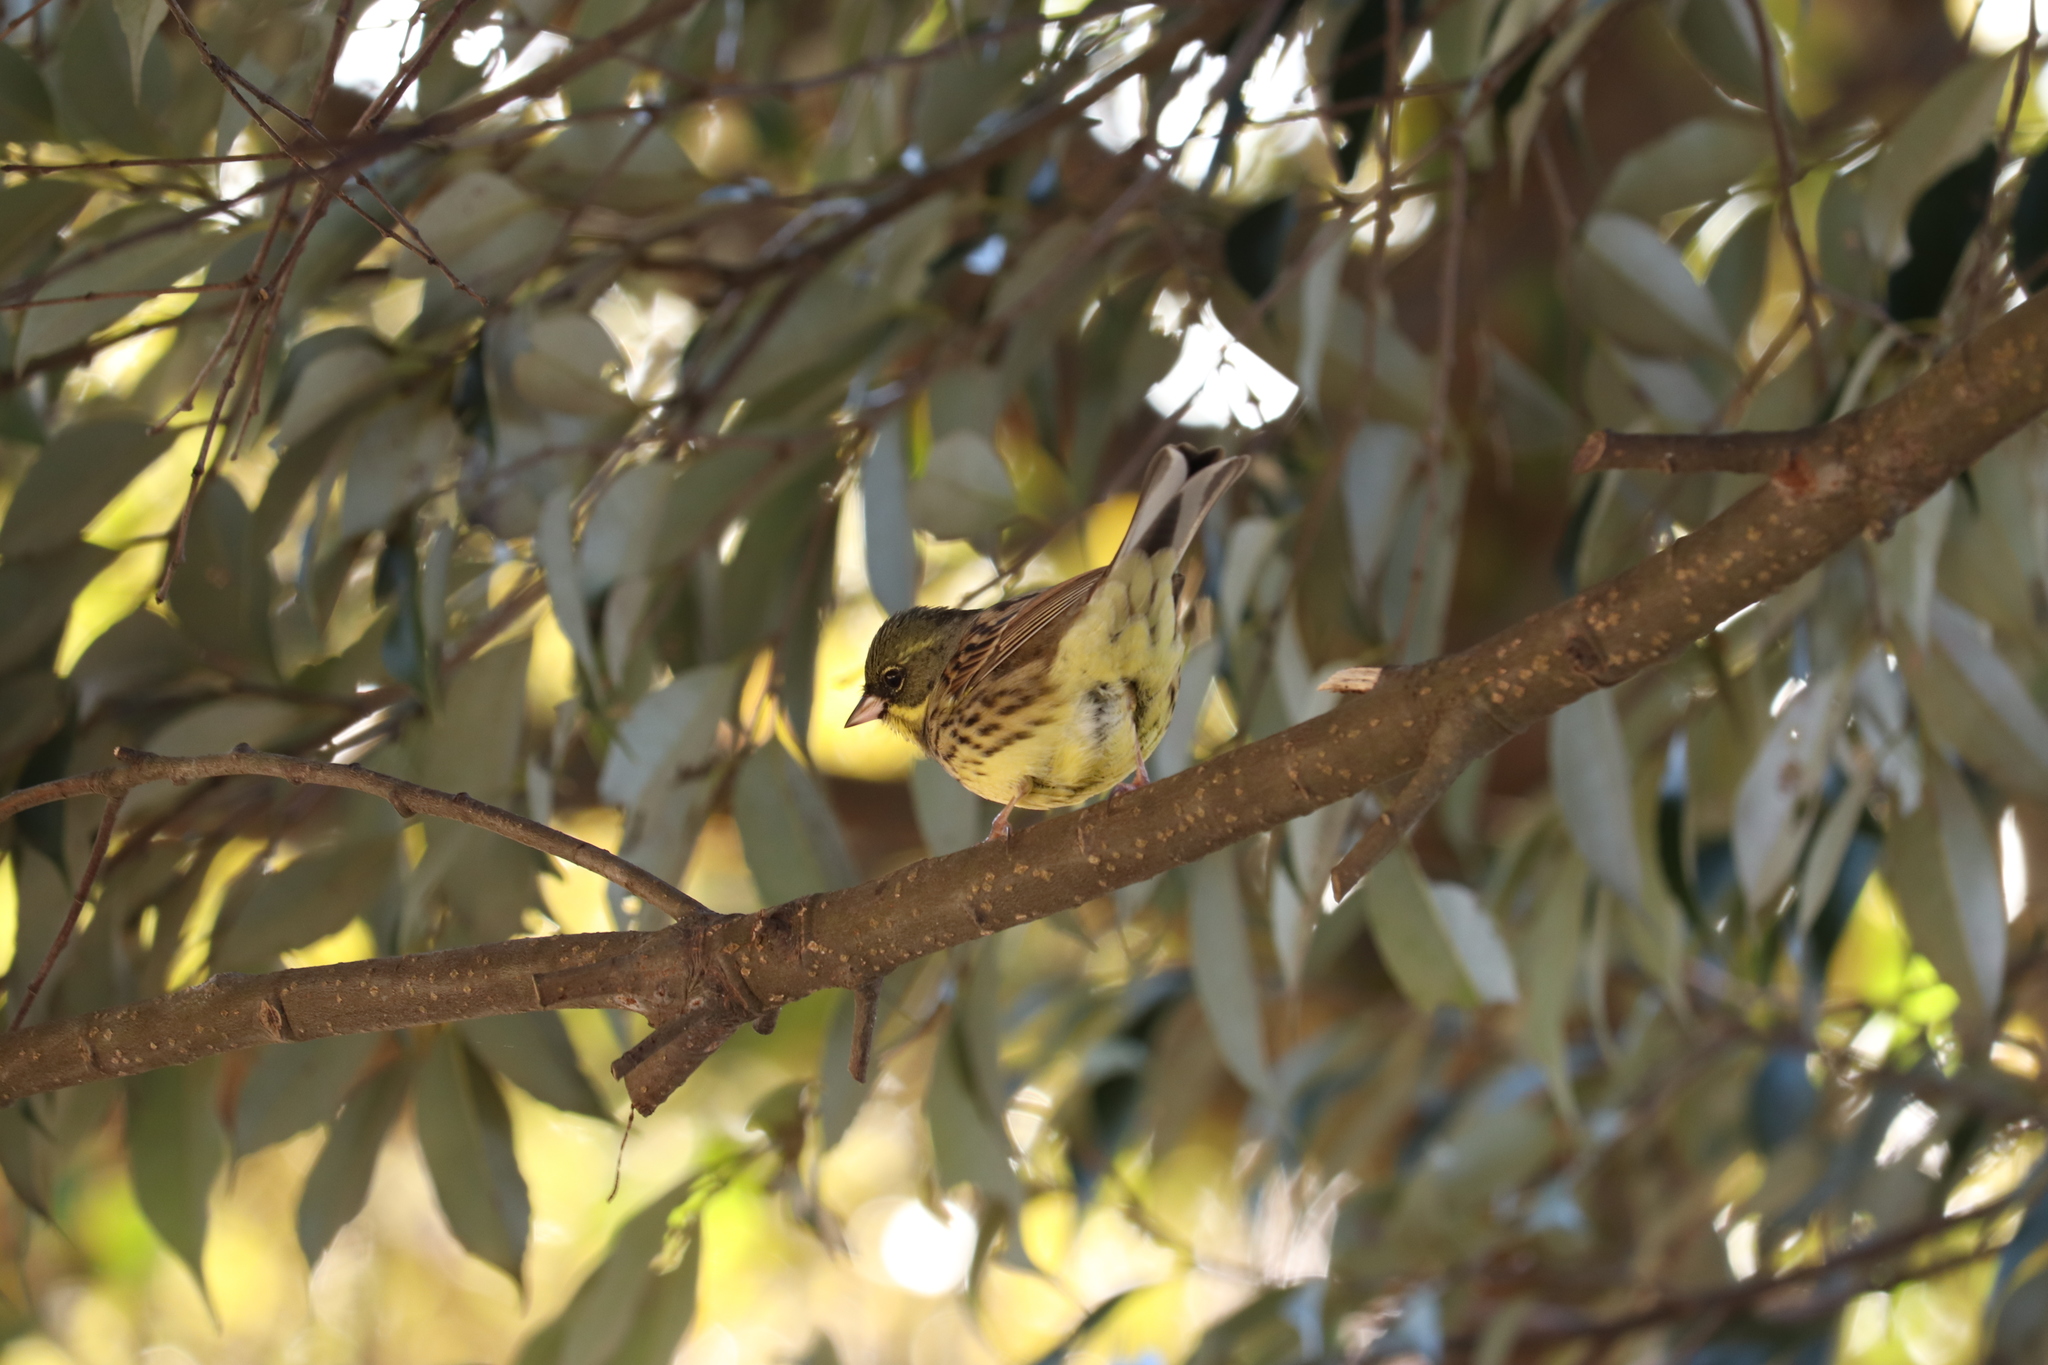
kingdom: Animalia
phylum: Chordata
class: Aves
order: Passeriformes
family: Emberizidae
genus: Emberiza
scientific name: Emberiza personata
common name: Masked bunting
